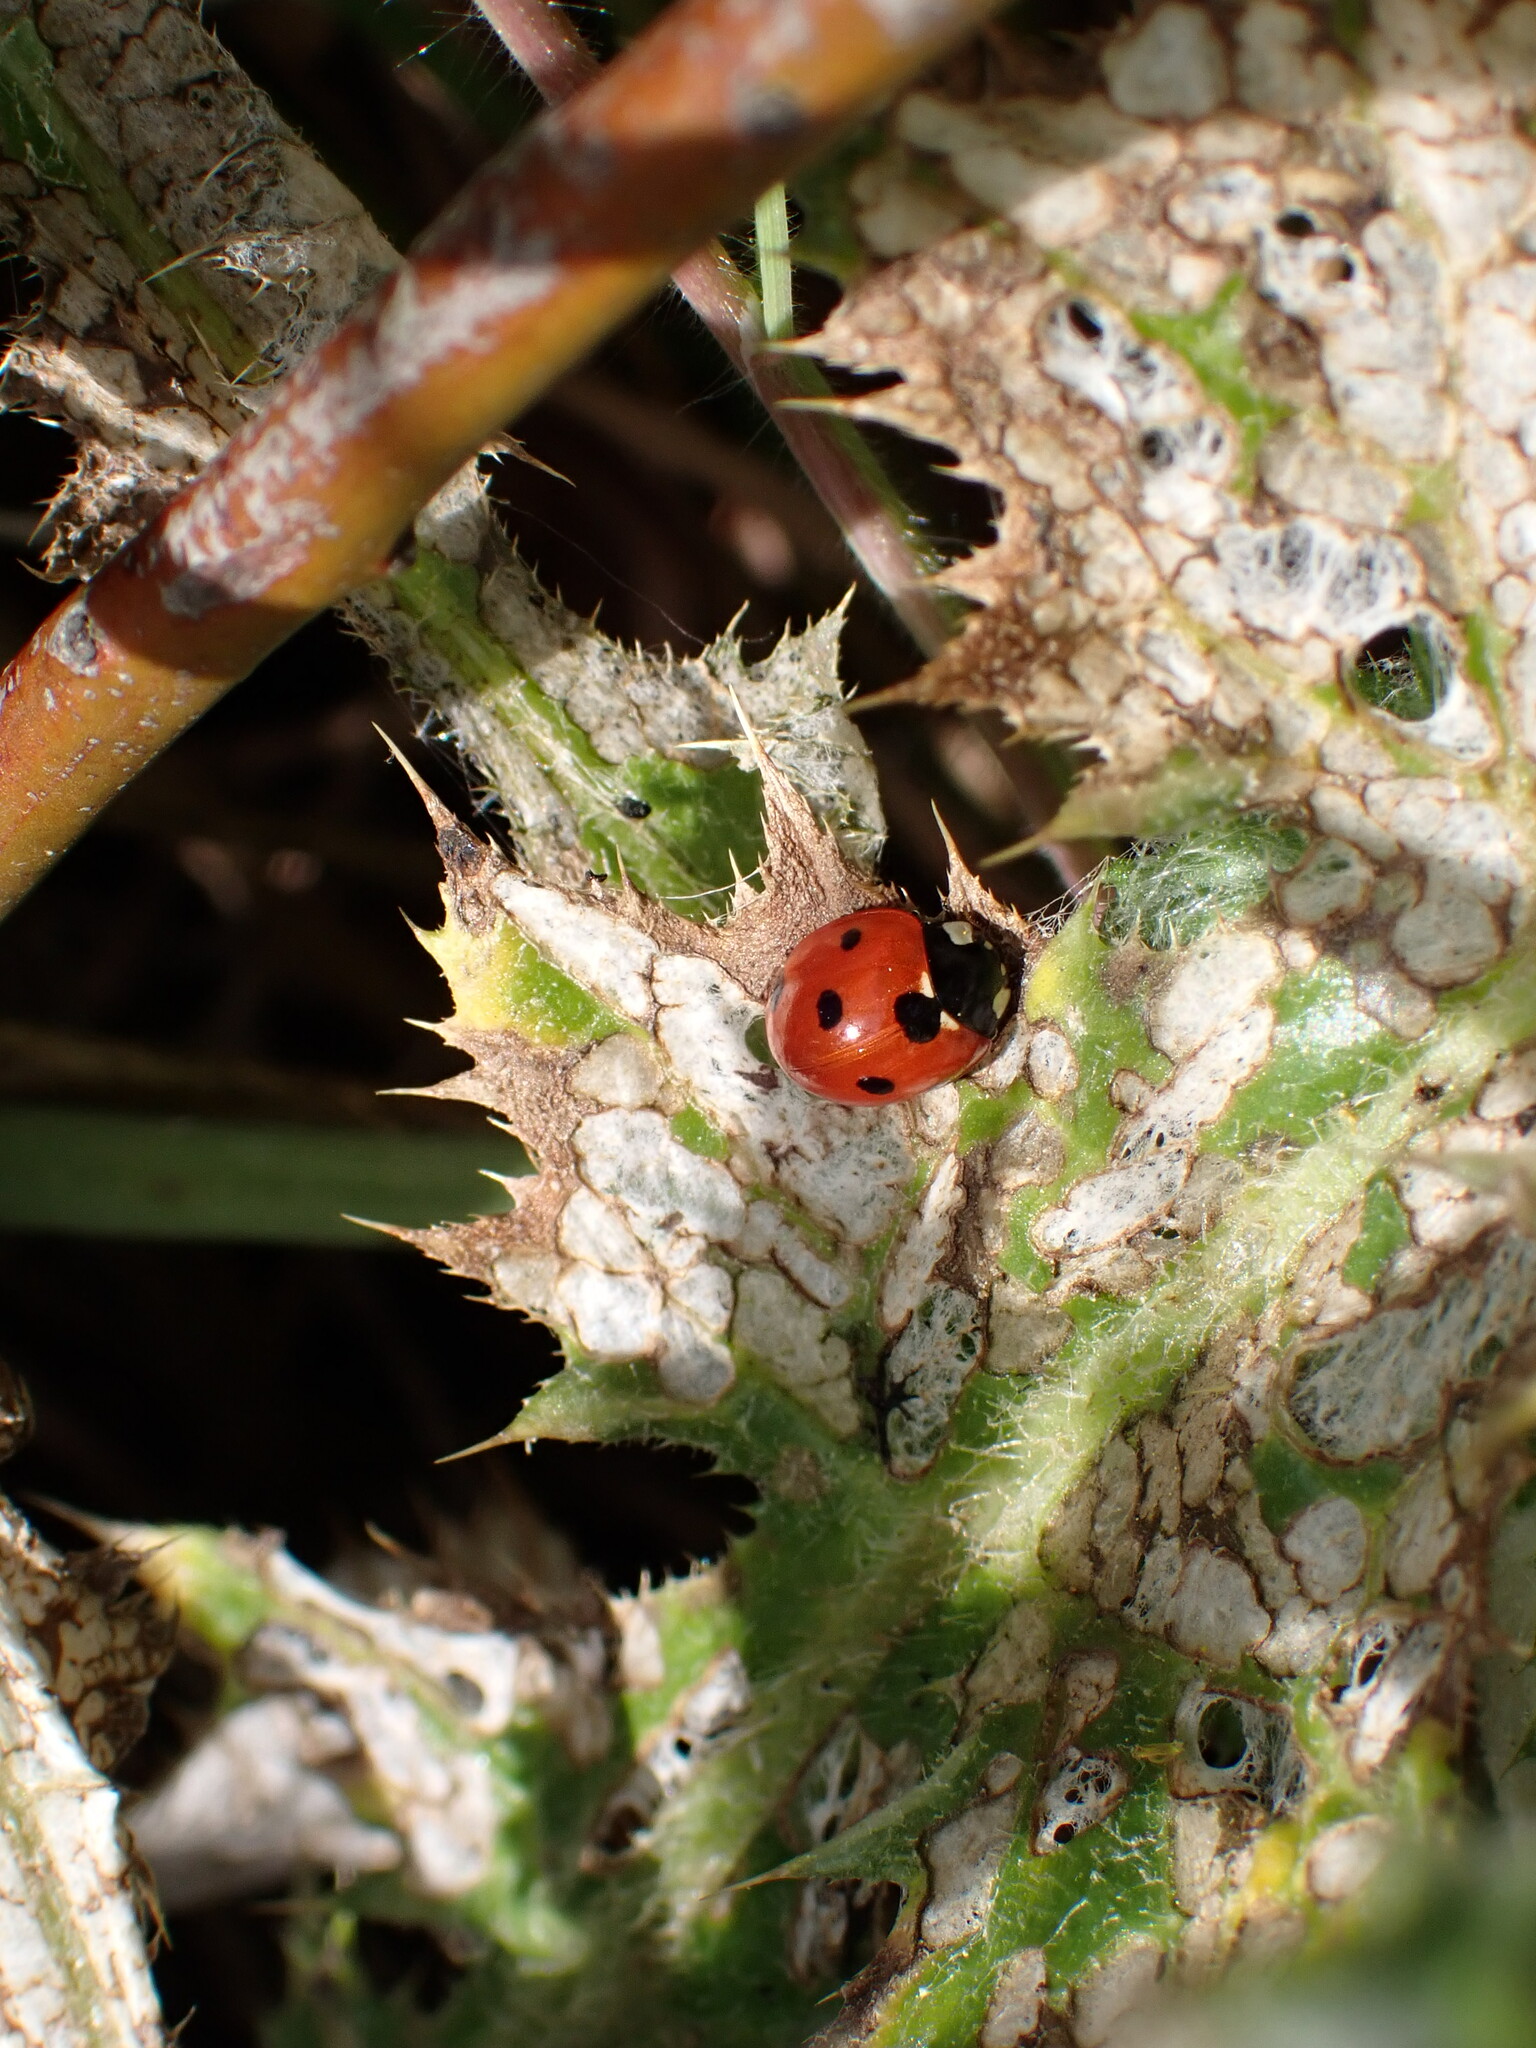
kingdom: Animalia
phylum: Arthropoda
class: Insecta
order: Coleoptera
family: Coccinellidae
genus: Coccinella
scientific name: Coccinella septempunctata
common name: Sevenspotted lady beetle
